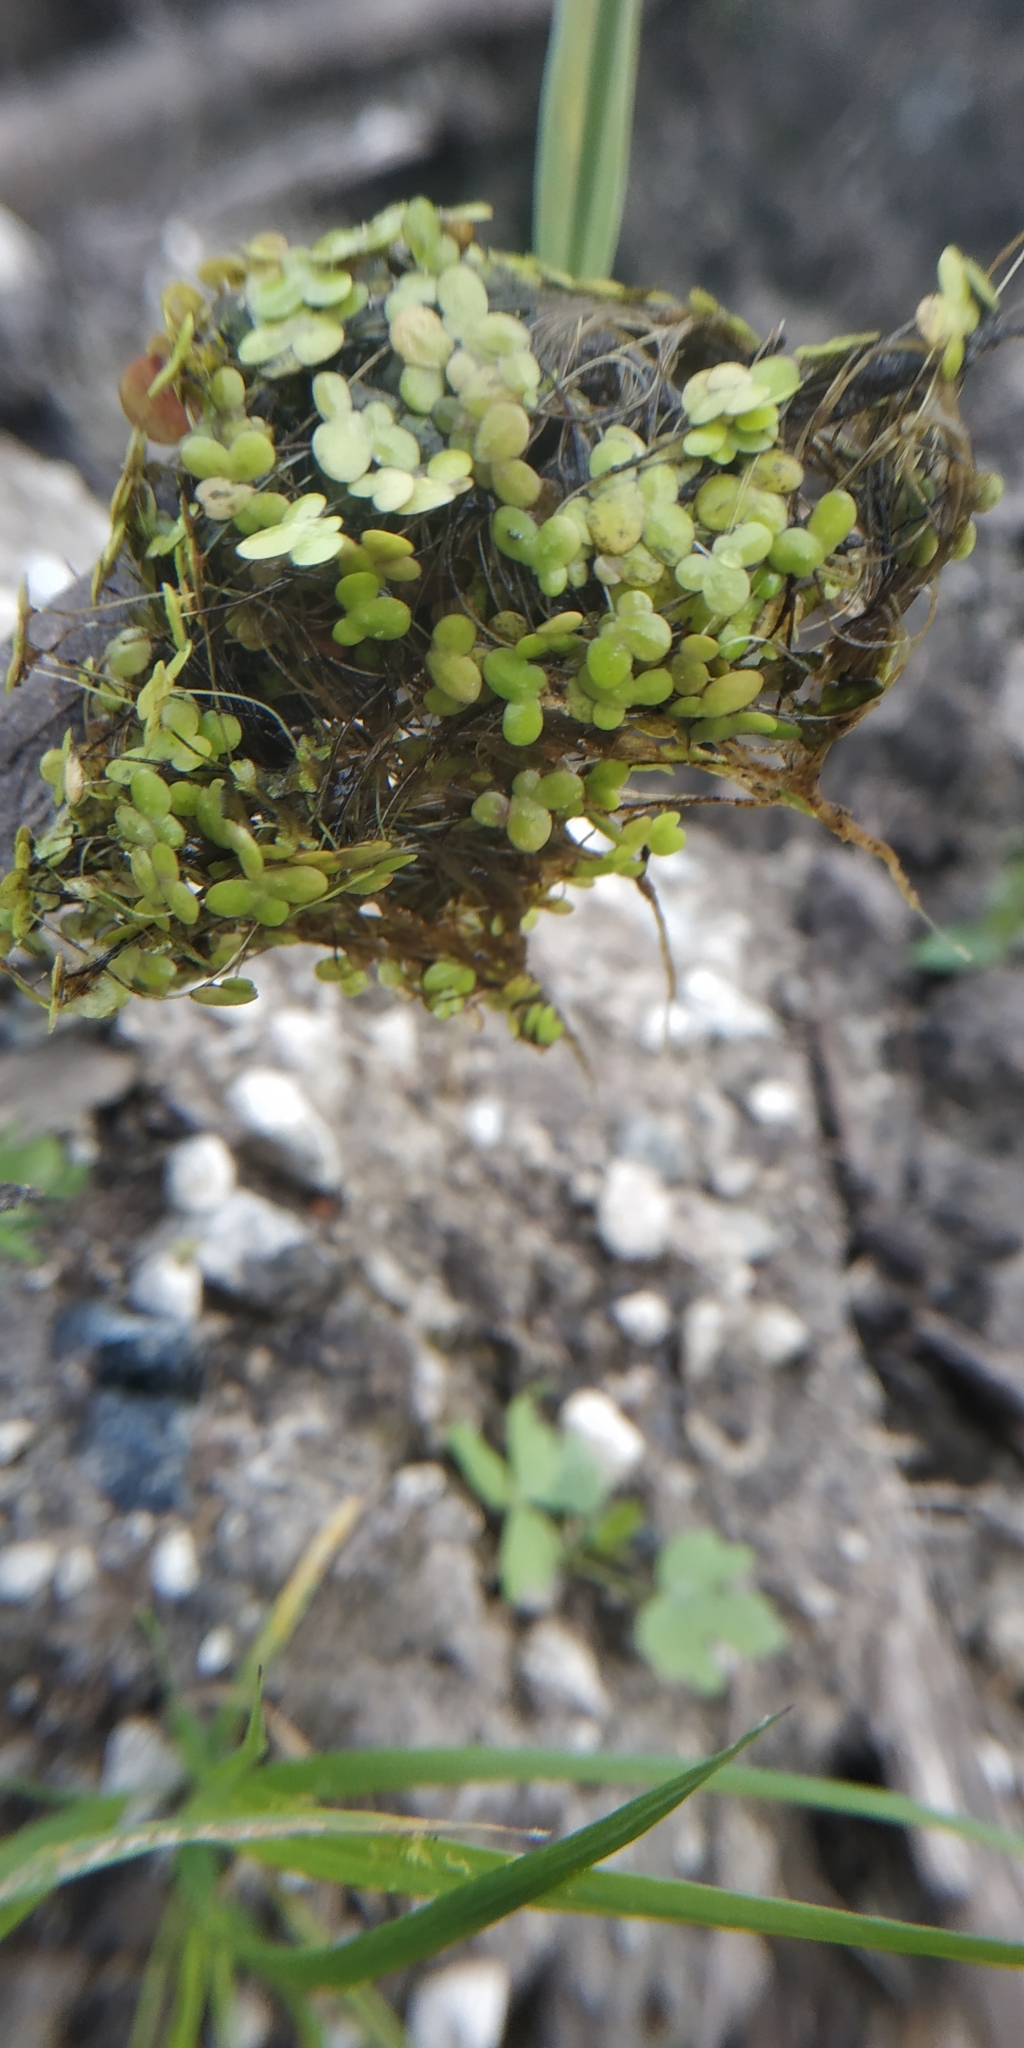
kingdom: Plantae
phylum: Tracheophyta
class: Liliopsida
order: Alismatales
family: Araceae
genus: Lemna
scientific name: Lemna minor
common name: Common duckweed
